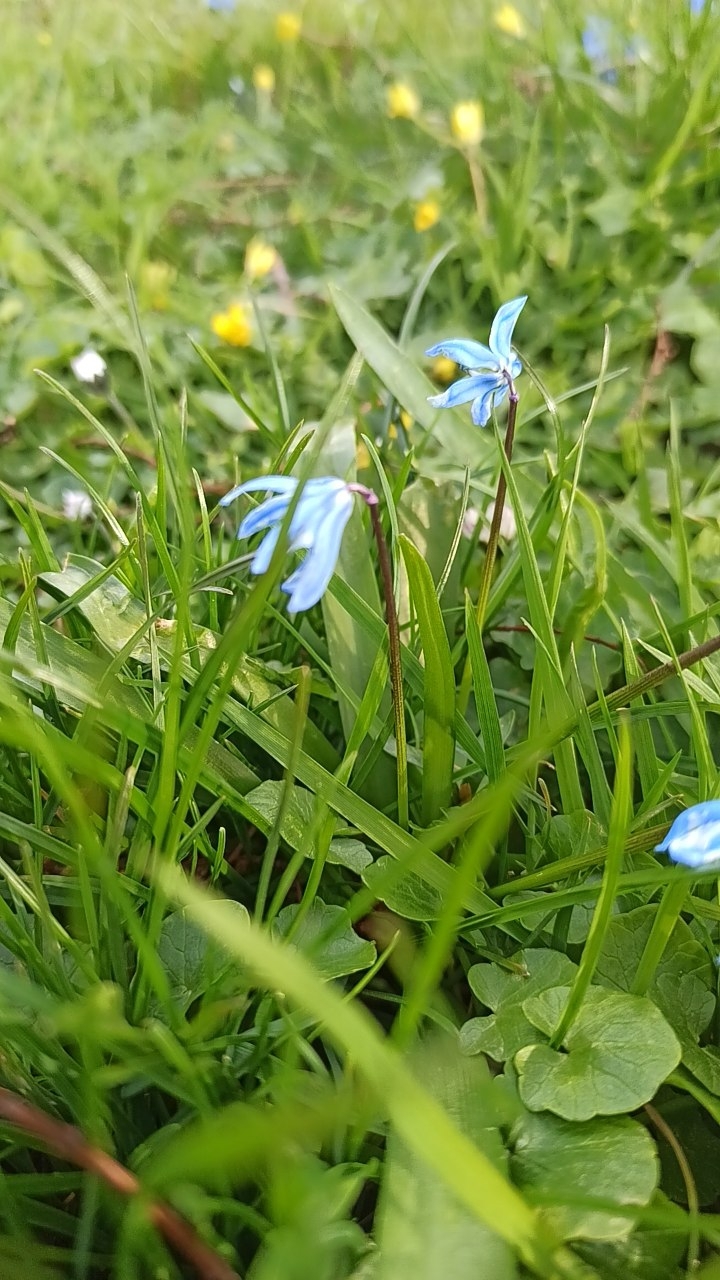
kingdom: Plantae
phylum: Tracheophyta
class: Liliopsida
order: Asparagales
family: Asparagaceae
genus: Scilla
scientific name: Scilla siberica
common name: Siberian squill
